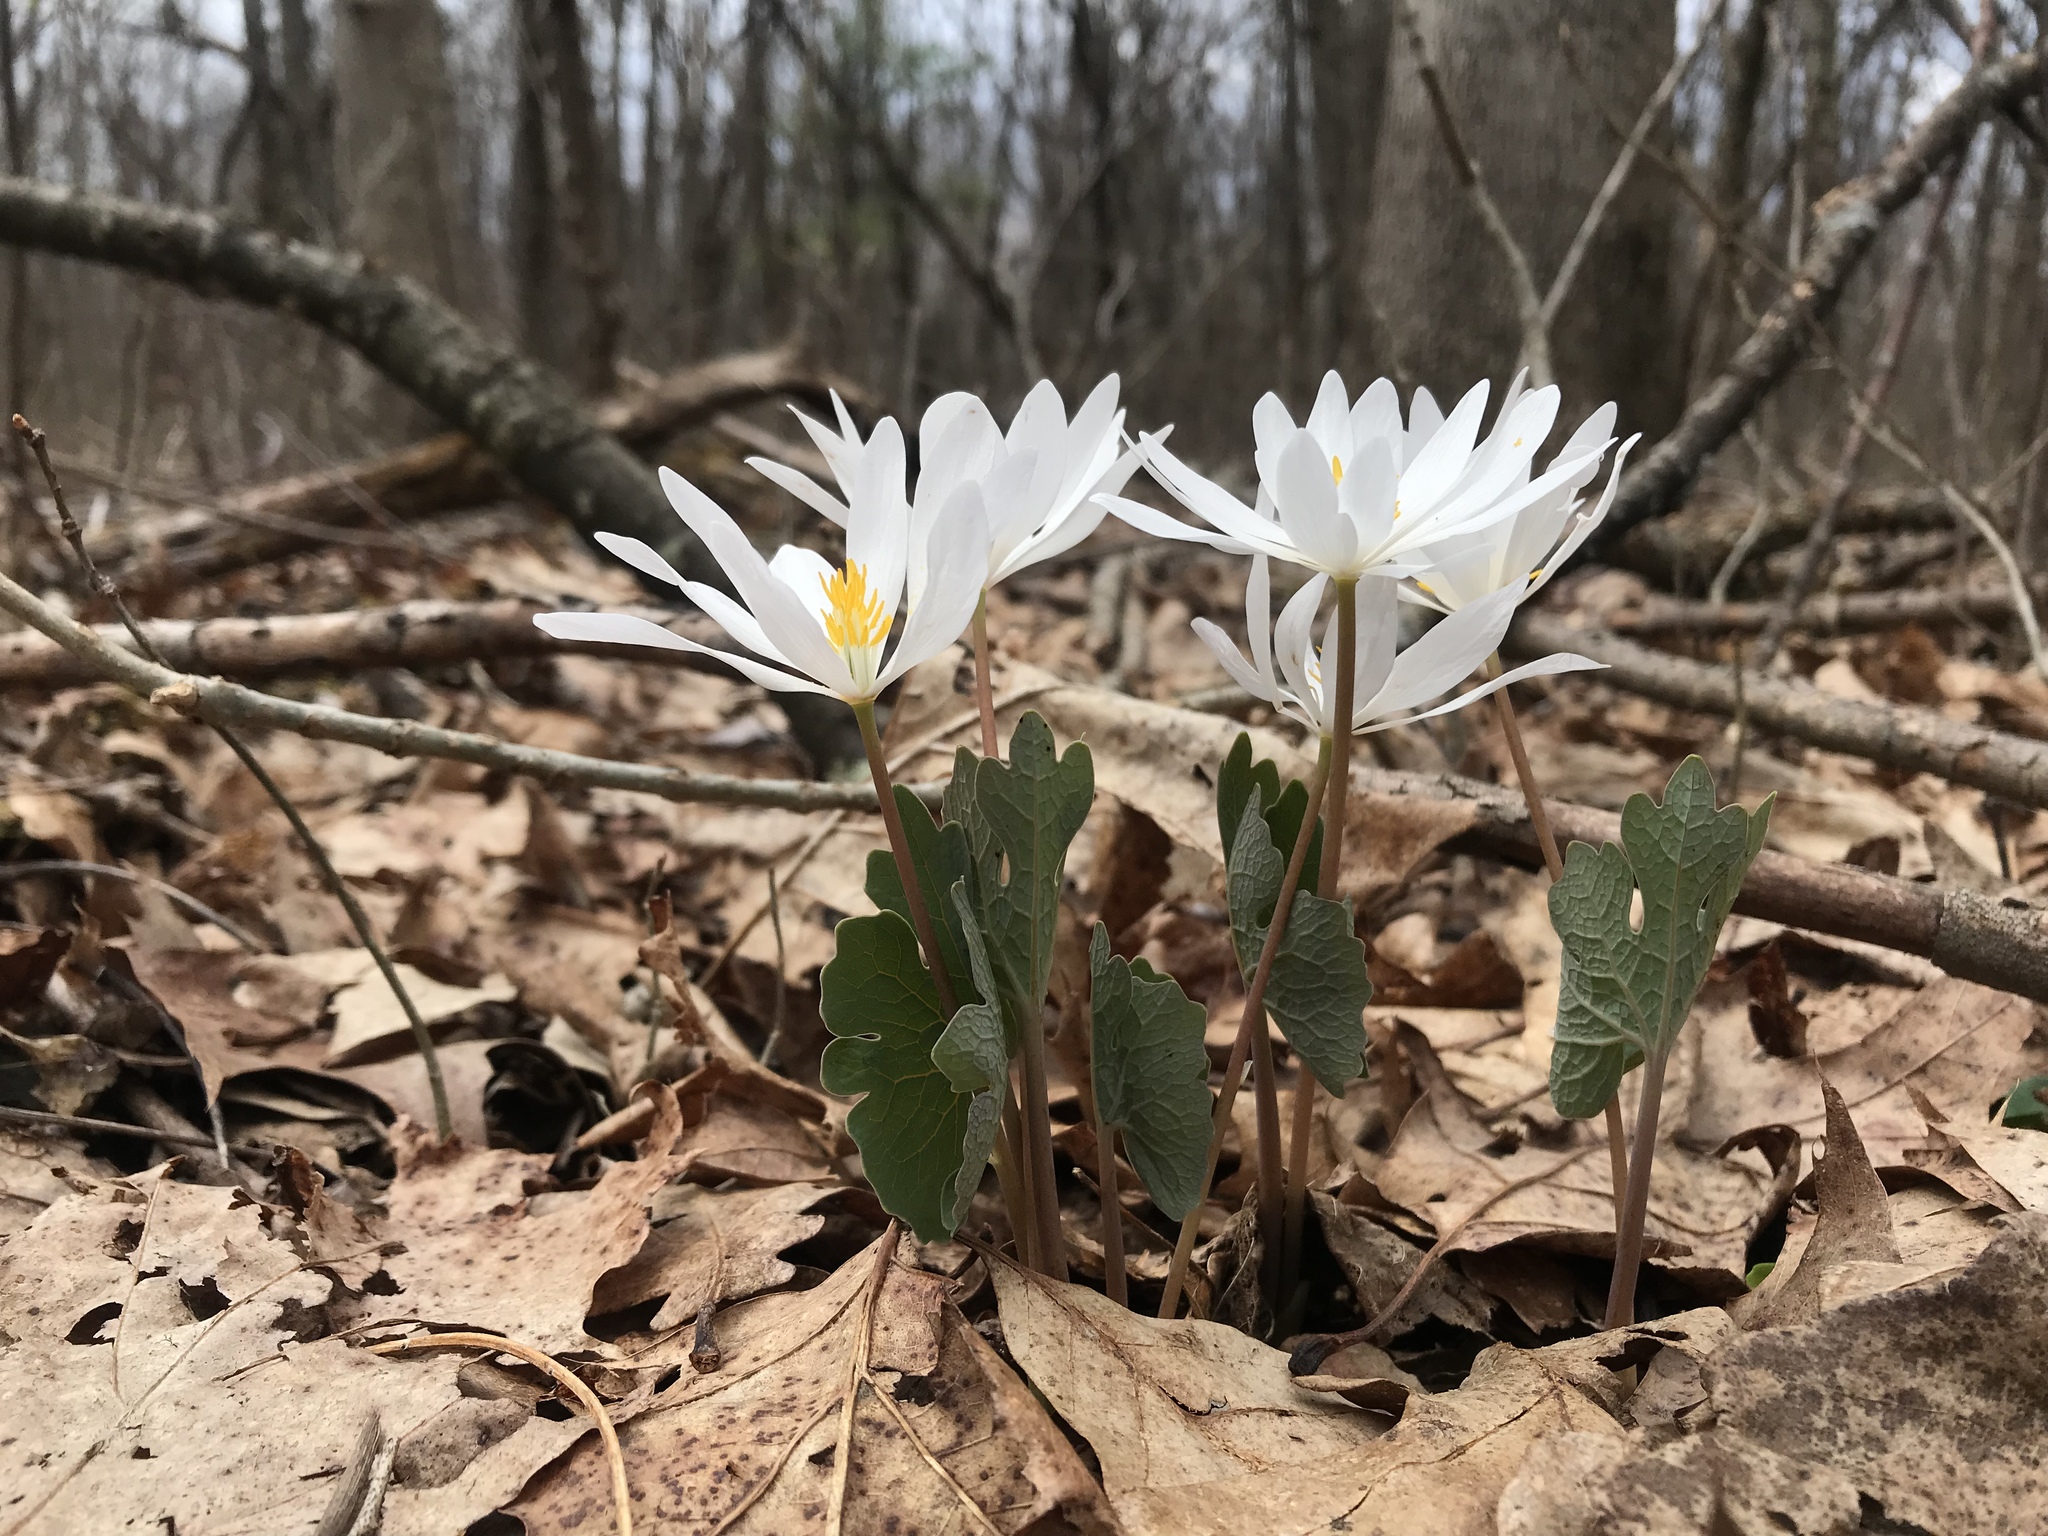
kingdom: Plantae
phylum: Tracheophyta
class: Magnoliopsida
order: Ranunculales
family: Papaveraceae
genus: Sanguinaria
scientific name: Sanguinaria canadensis
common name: Bloodroot
